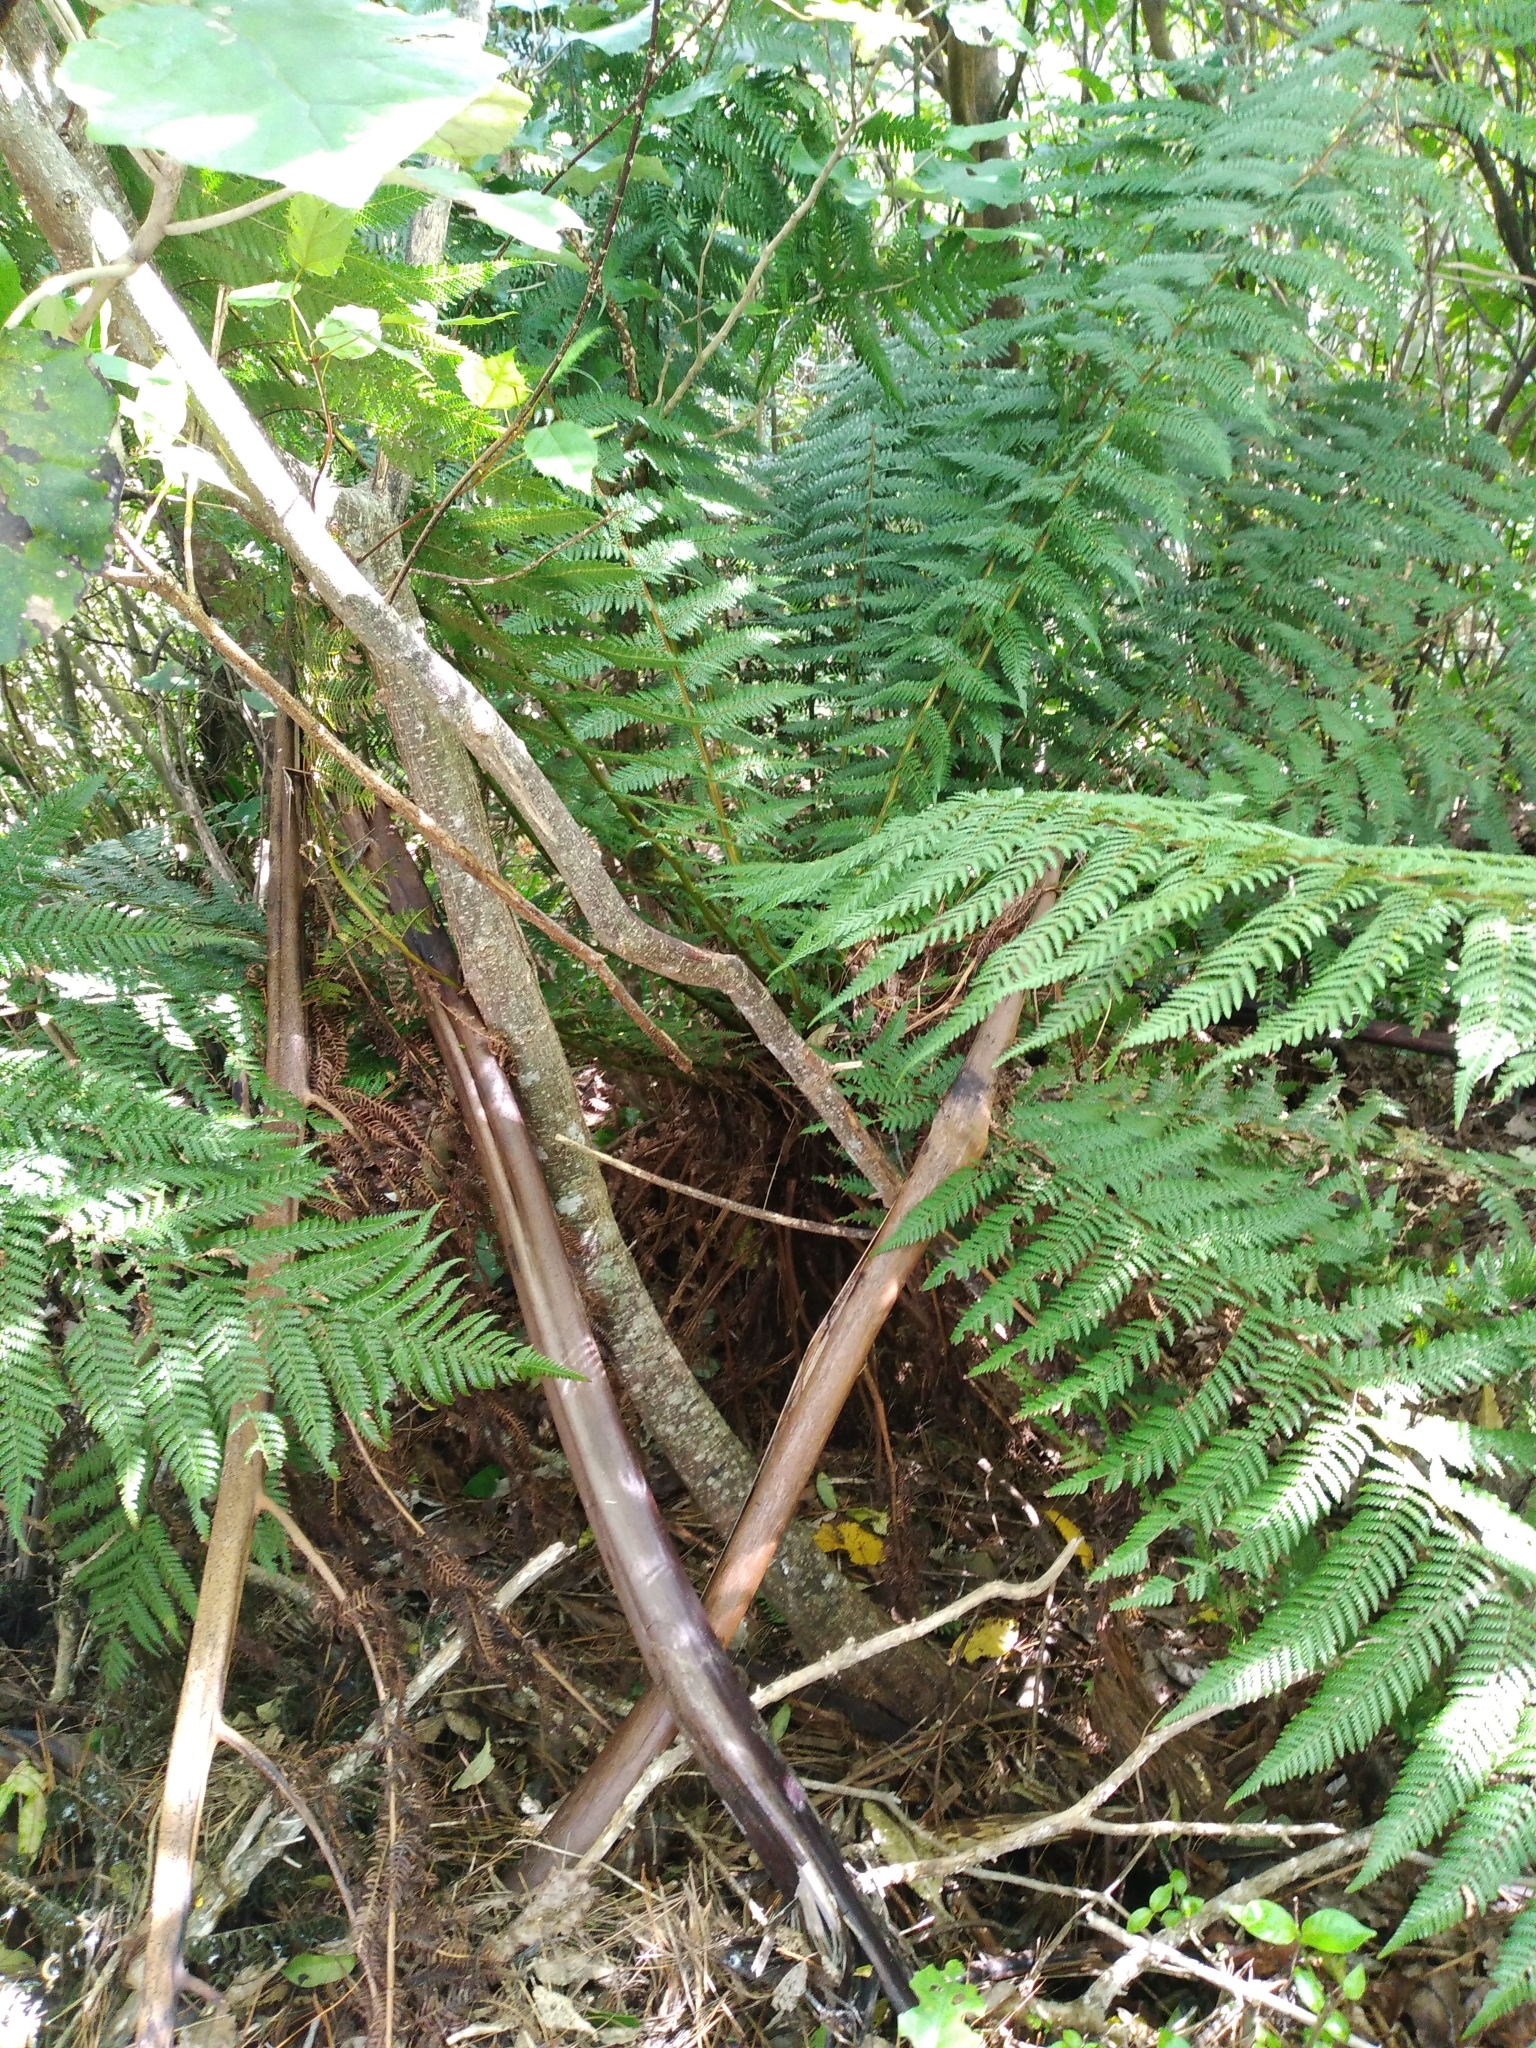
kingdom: Plantae
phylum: Tracheophyta
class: Polypodiopsida
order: Cyatheales
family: Dicksoniaceae
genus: Dicksonia
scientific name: Dicksonia fibrosa
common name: Golden tree fern
